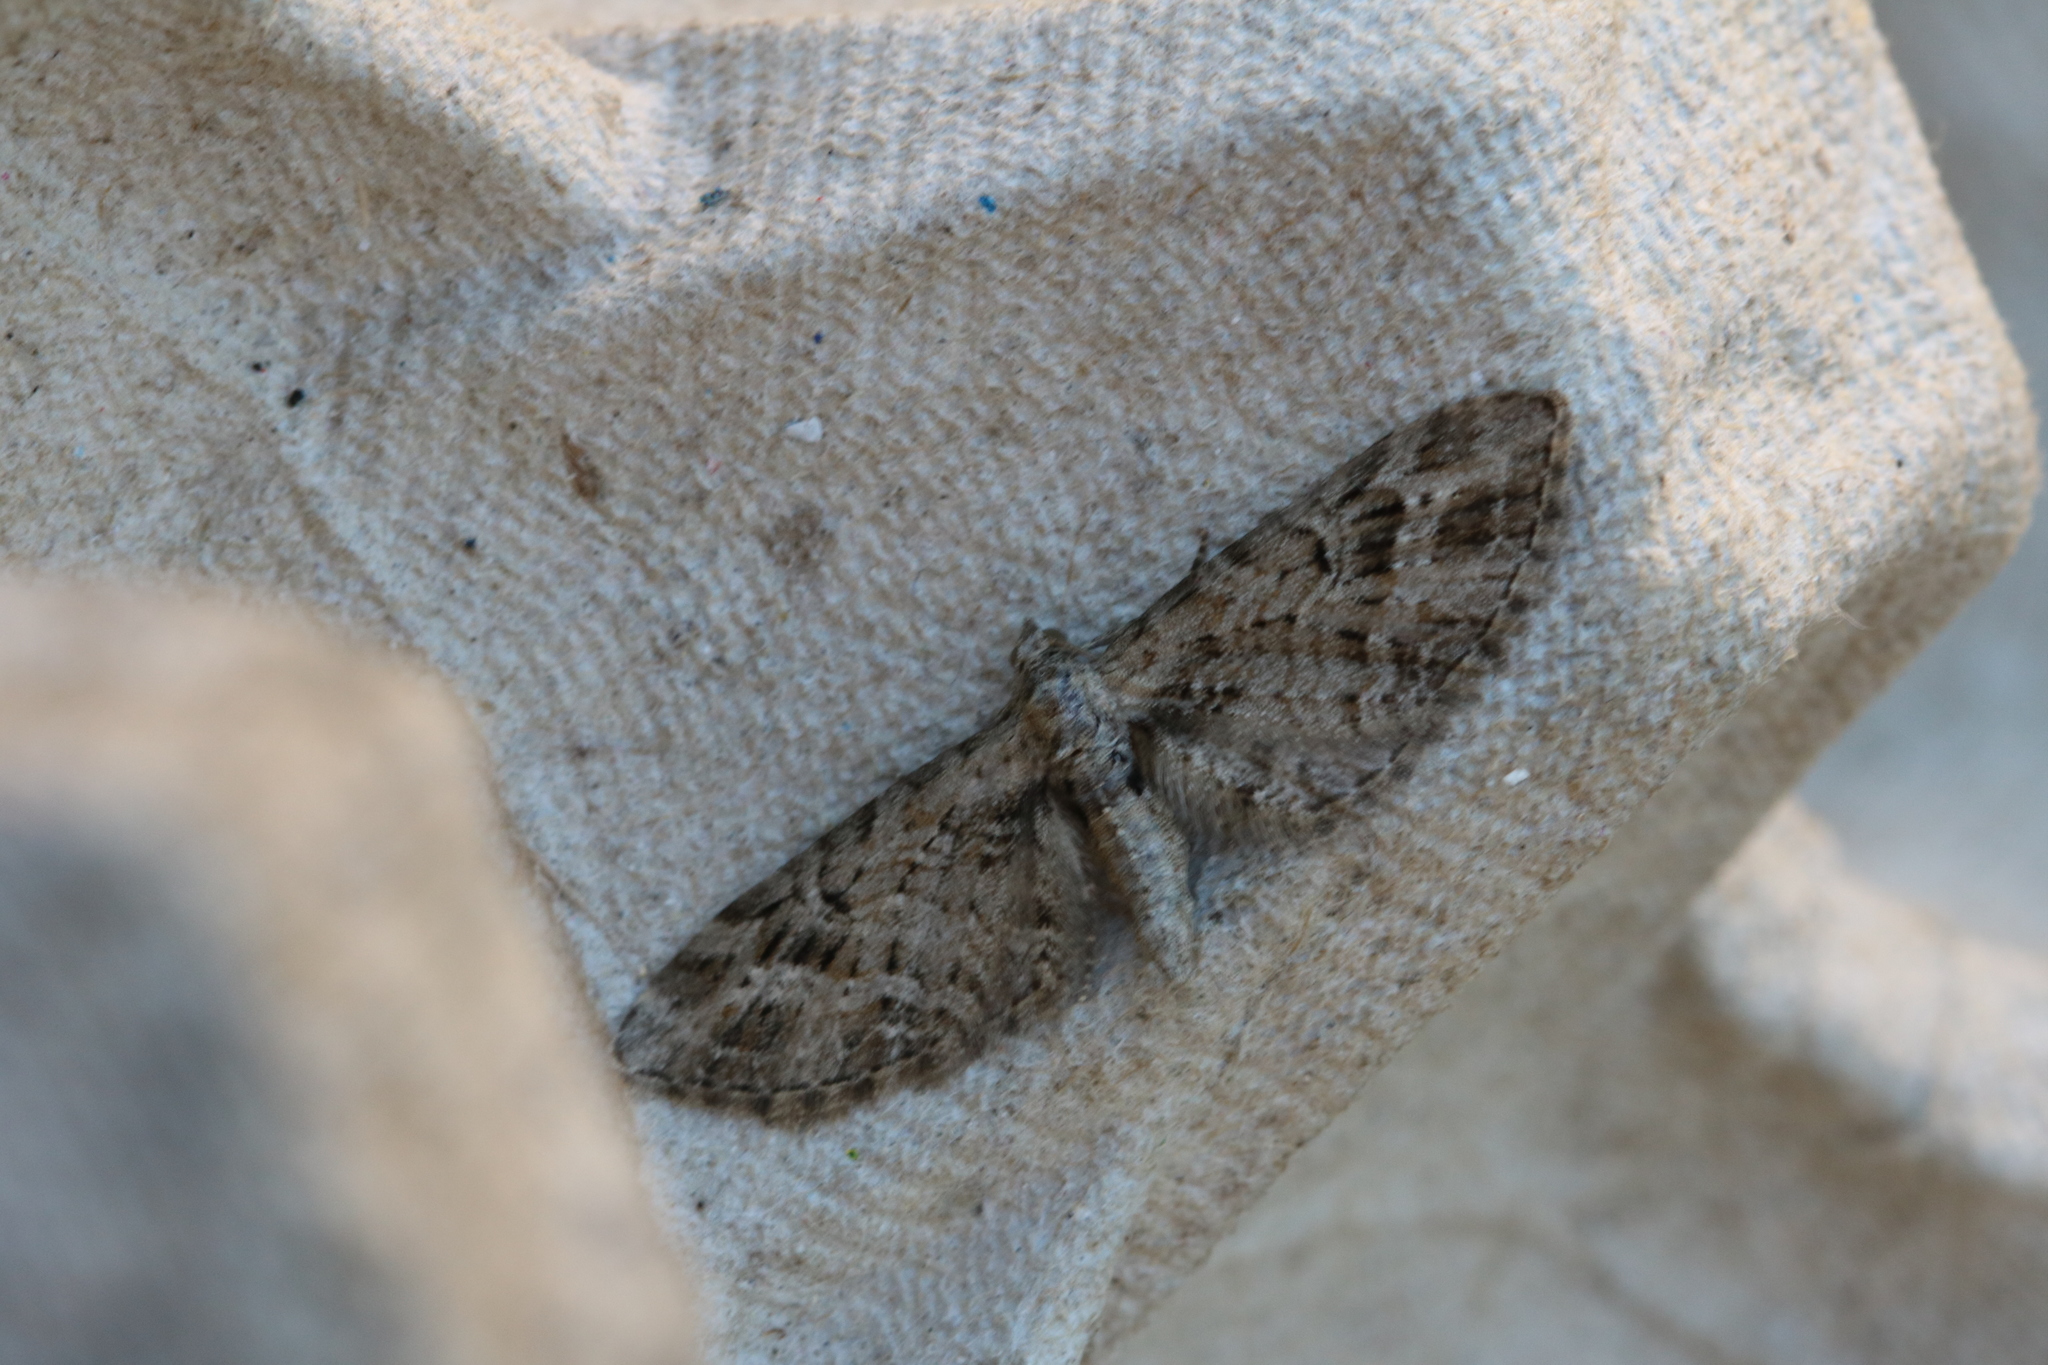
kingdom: Animalia
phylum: Arthropoda
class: Insecta
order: Lepidoptera
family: Geometridae
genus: Eupithecia
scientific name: Eupithecia exiguata
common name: Mottled pug
